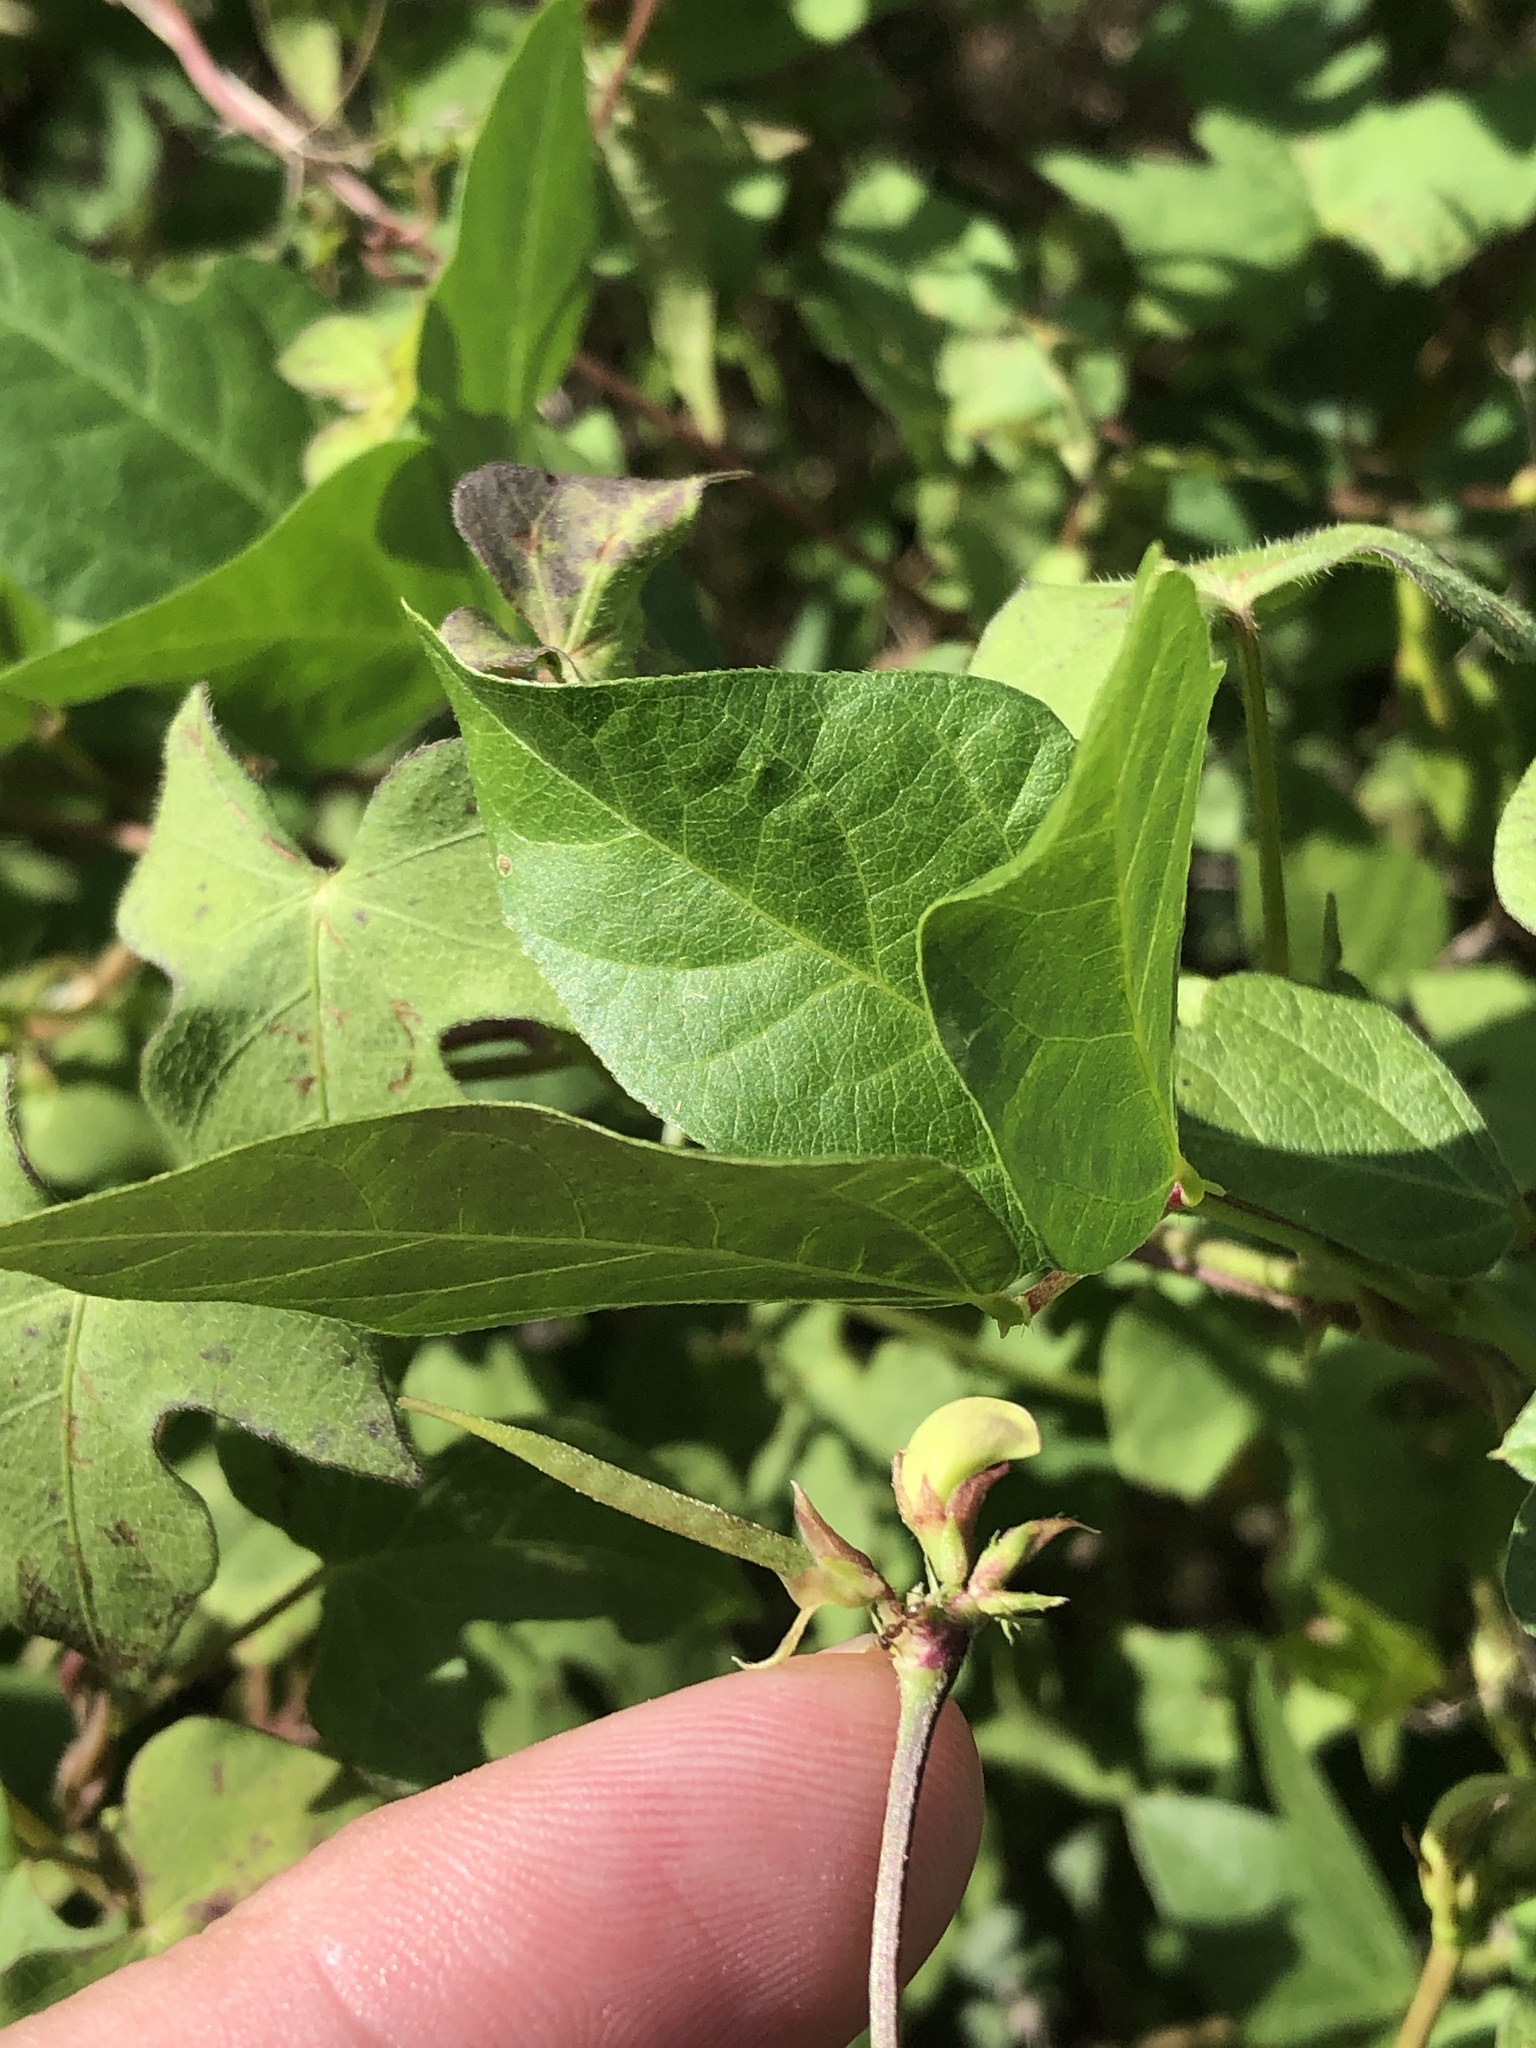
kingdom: Plantae
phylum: Tracheophyta
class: Magnoliopsida
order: Fabales
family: Fabaceae
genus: Strophostyles
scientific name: Strophostyles helvola
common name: Trailing wild bean
